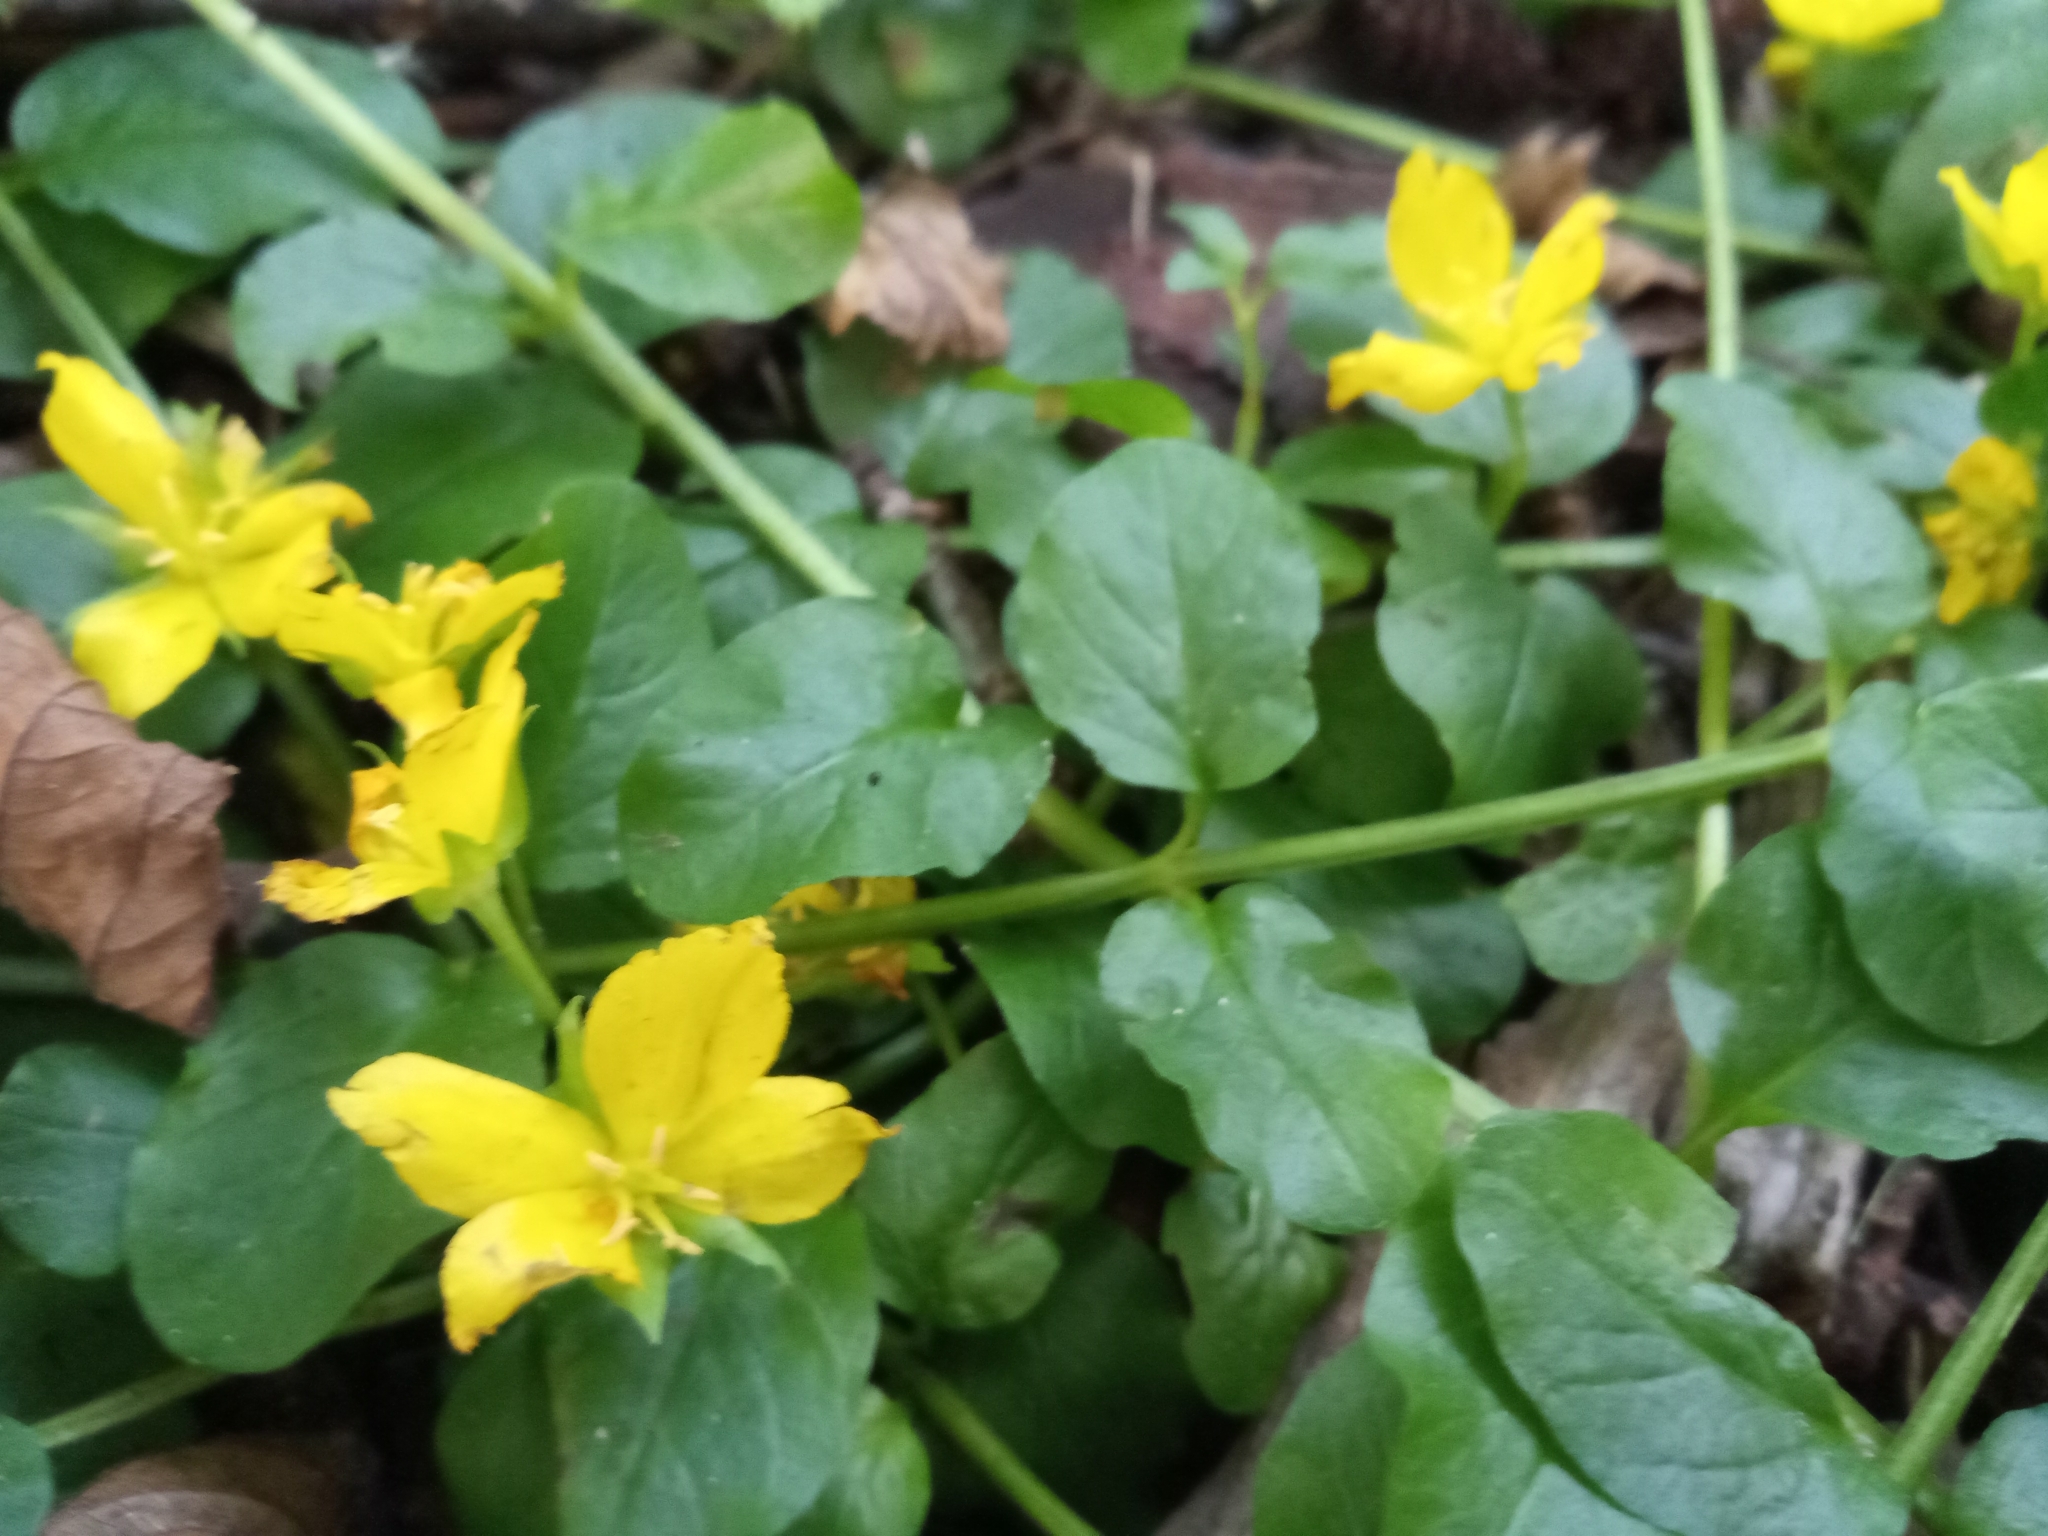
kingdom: Plantae
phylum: Tracheophyta
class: Magnoliopsida
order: Ericales
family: Primulaceae
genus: Lysimachia
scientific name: Lysimachia nummularia
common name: Moneywort
